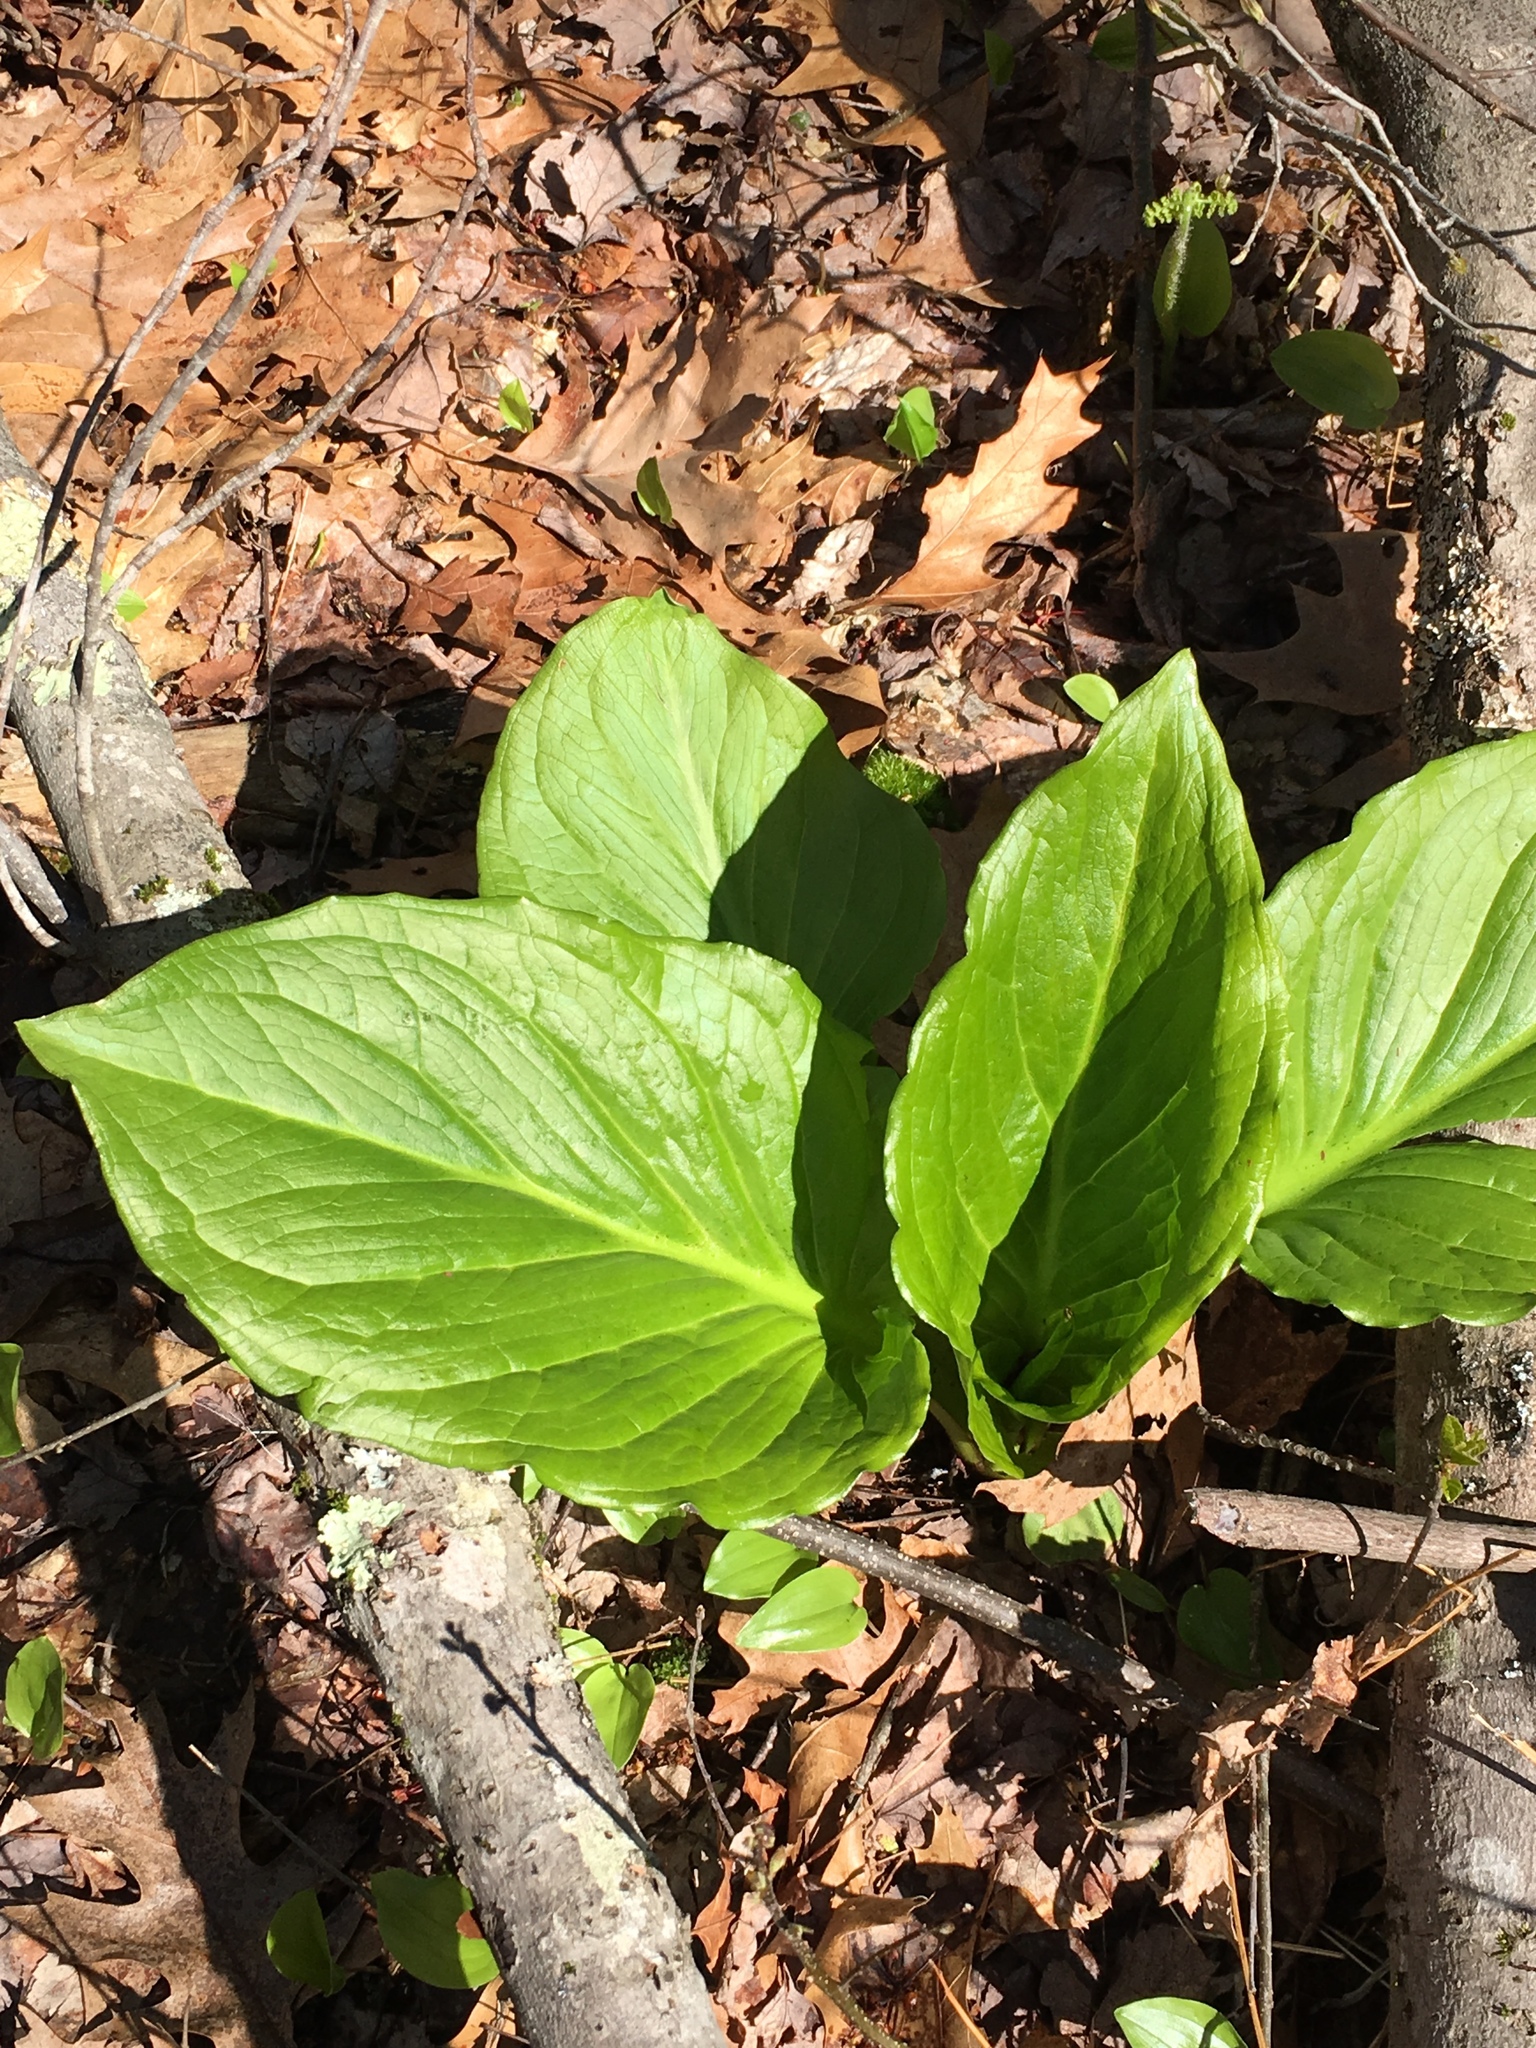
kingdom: Plantae
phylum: Tracheophyta
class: Liliopsida
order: Alismatales
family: Araceae
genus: Symplocarpus
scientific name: Symplocarpus foetidus
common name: Eastern skunk cabbage
